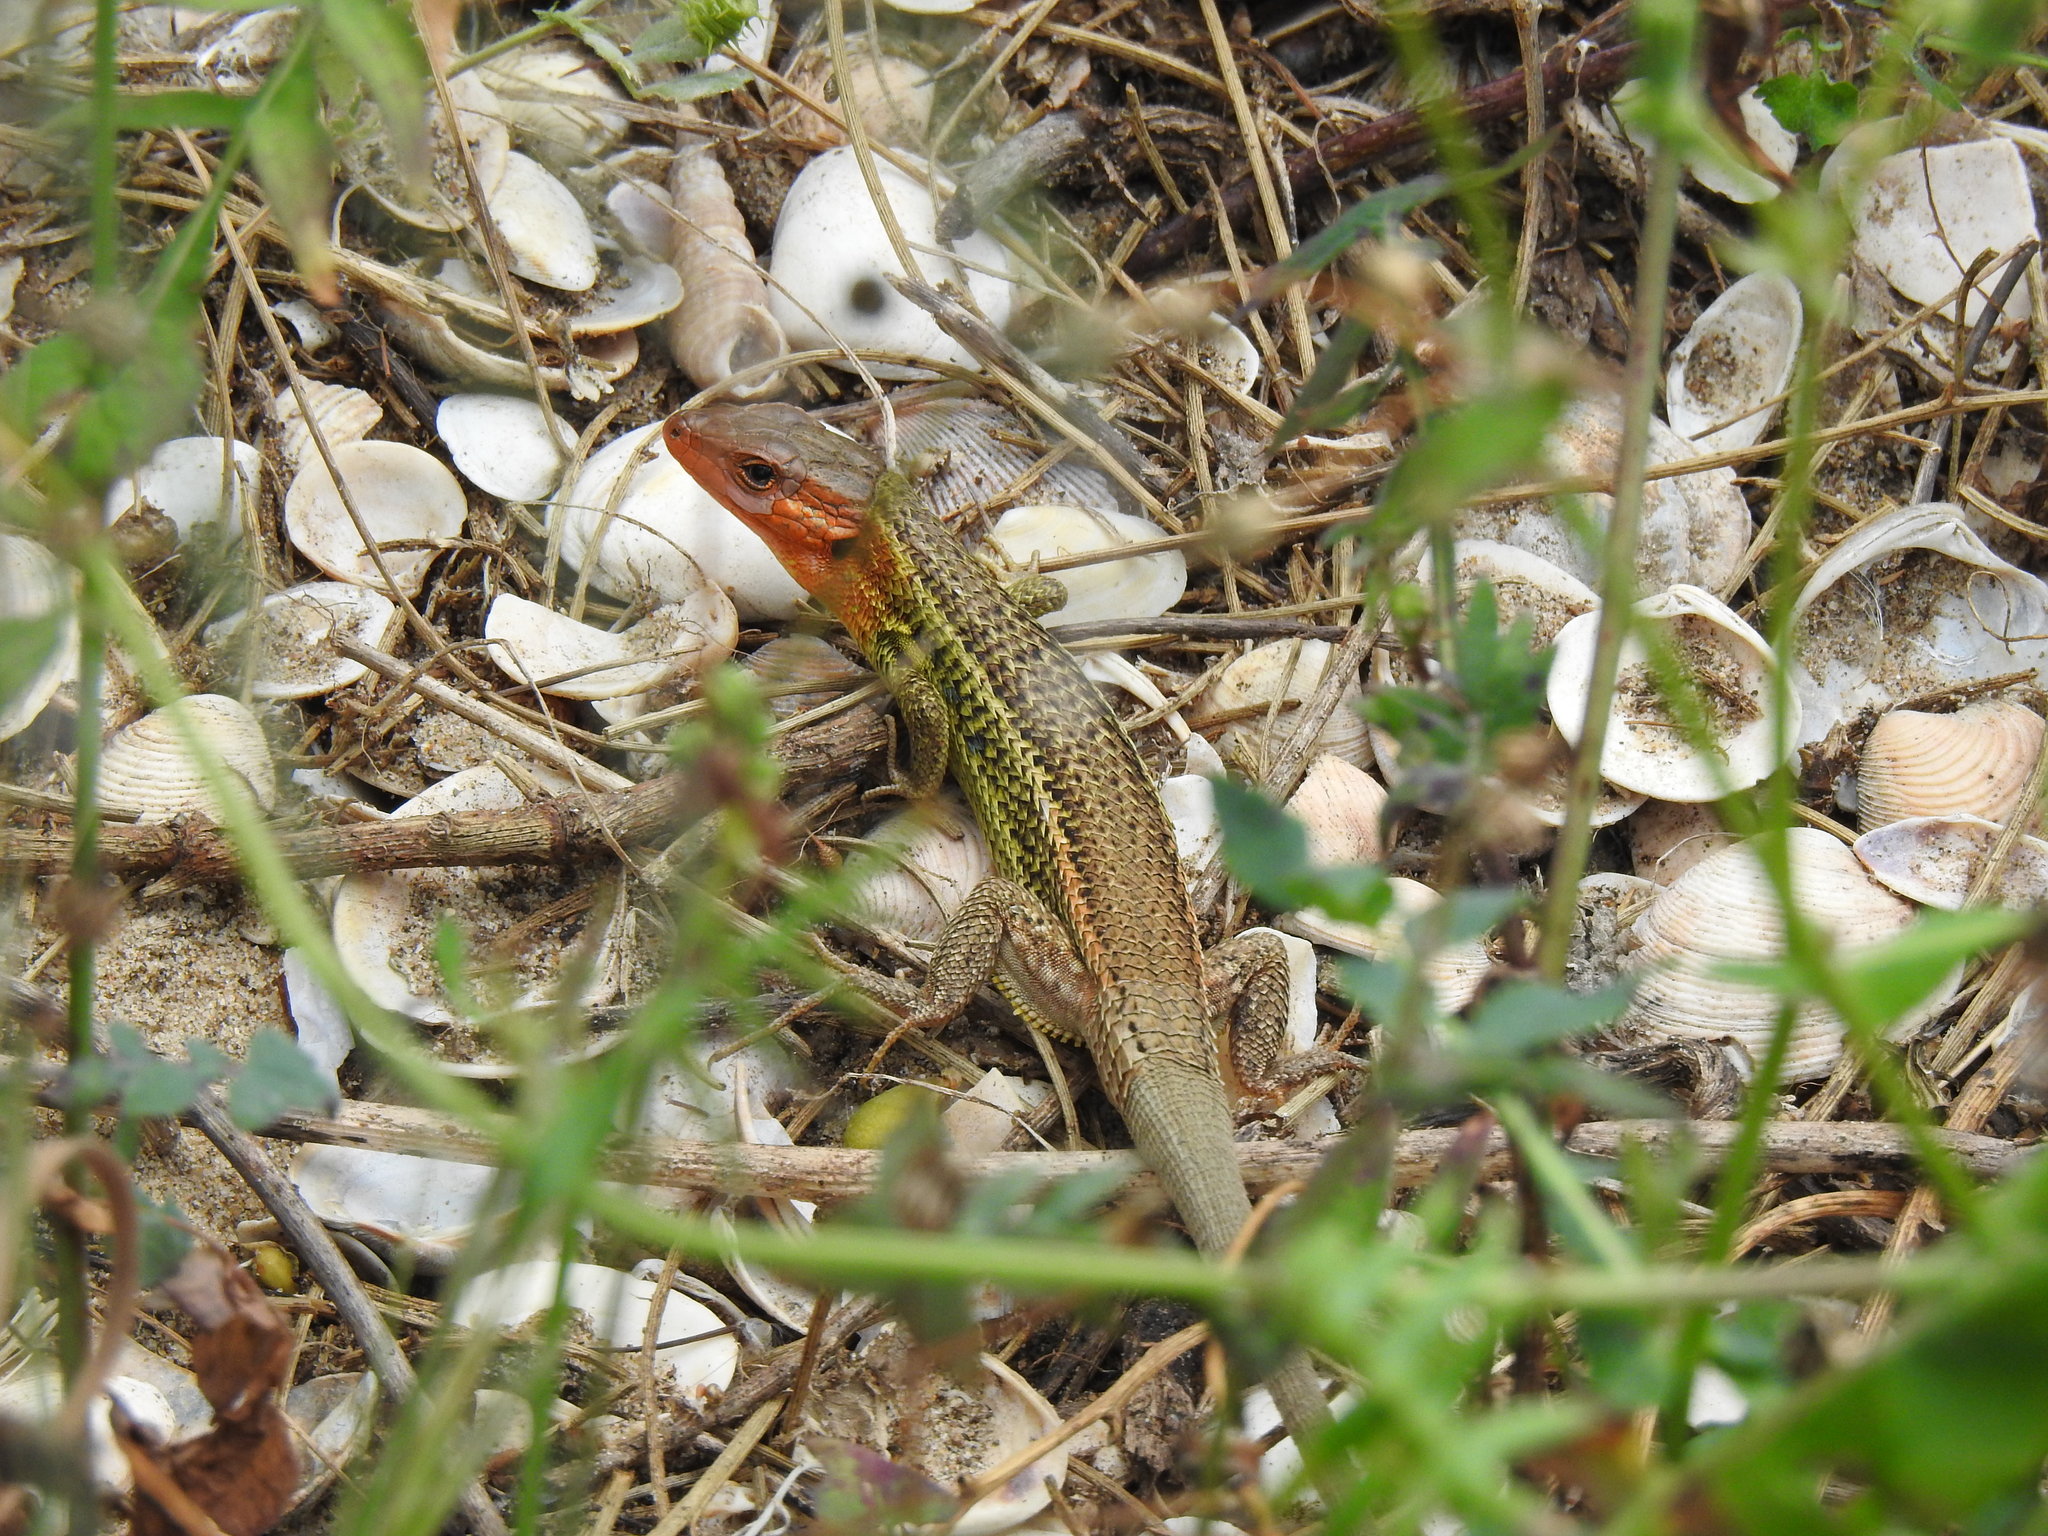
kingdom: Animalia
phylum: Chordata
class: Squamata
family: Lacertidae
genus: Psammodromus
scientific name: Psammodromus algirus
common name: Algerian psammodromus
